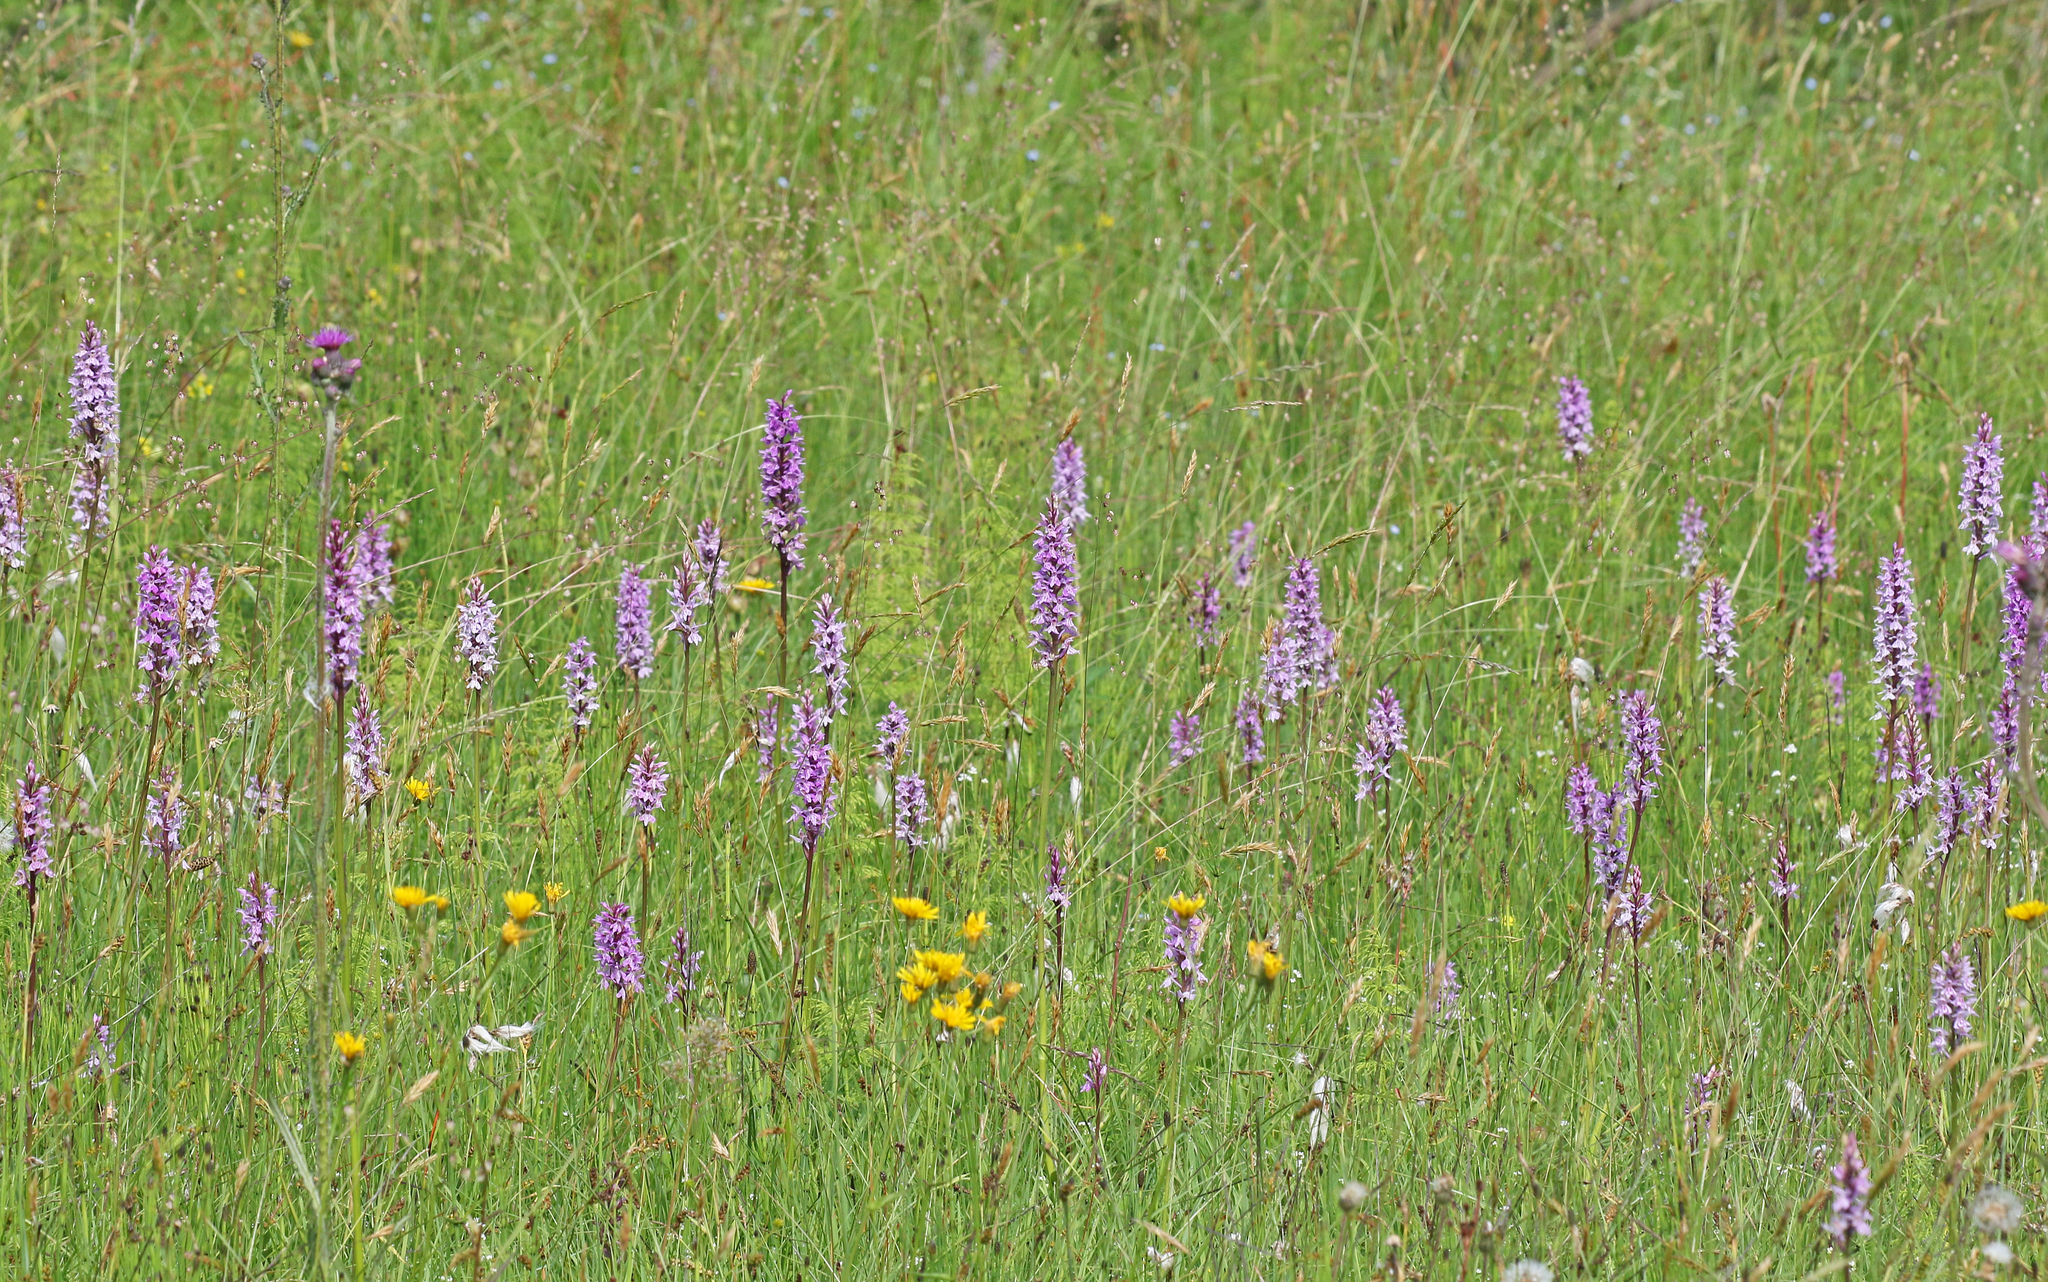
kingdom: Plantae
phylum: Tracheophyta
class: Liliopsida
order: Asparagales
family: Orchidaceae
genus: Dactylorhiza
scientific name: Dactylorhiza maculata
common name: Heath spotted-orchid
